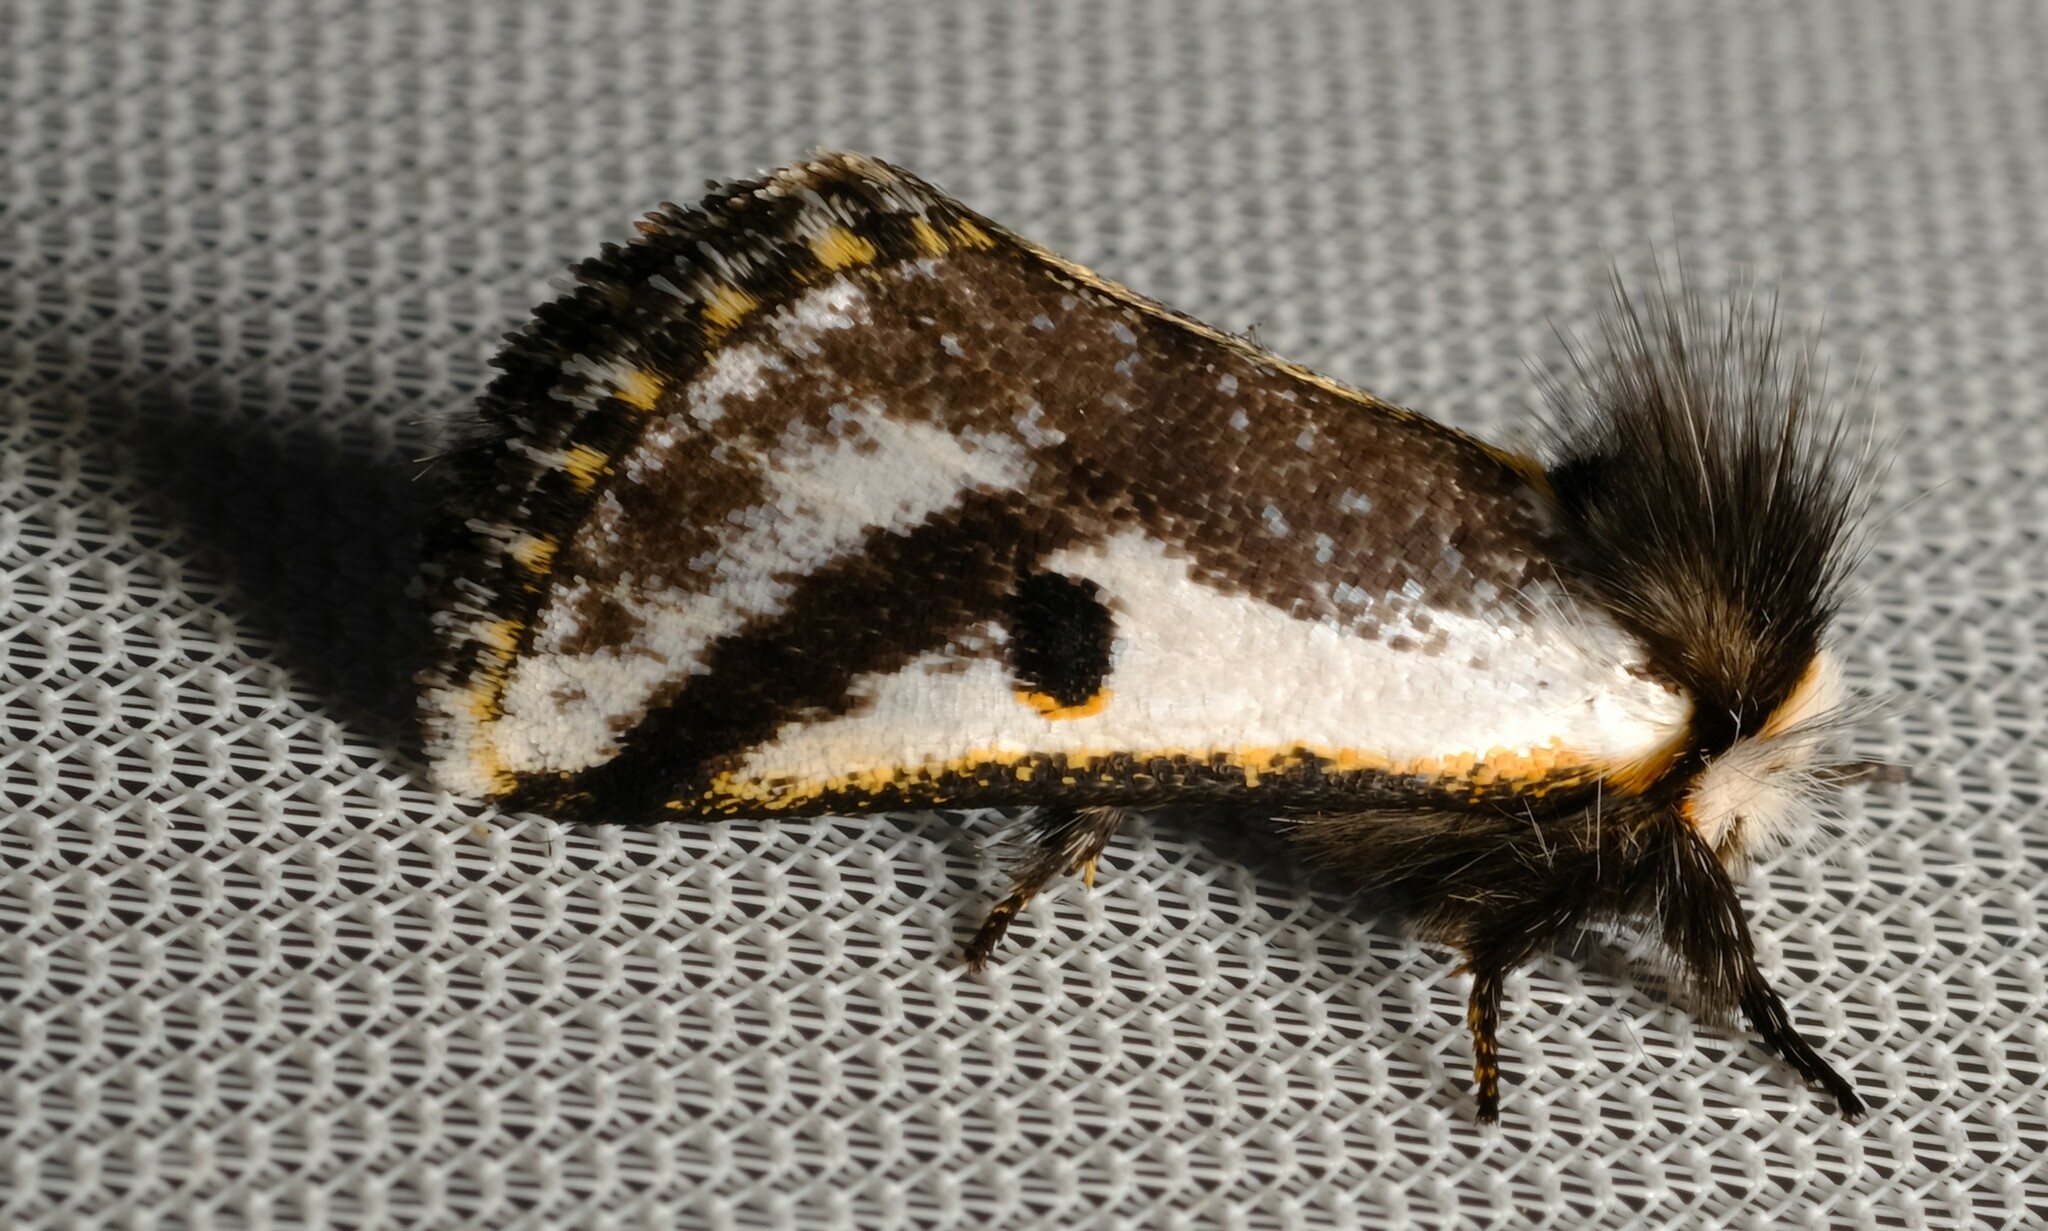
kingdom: Animalia
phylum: Arthropoda
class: Insecta
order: Lepidoptera
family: Notodontidae
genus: Epicoma
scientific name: Epicoma melanospila
